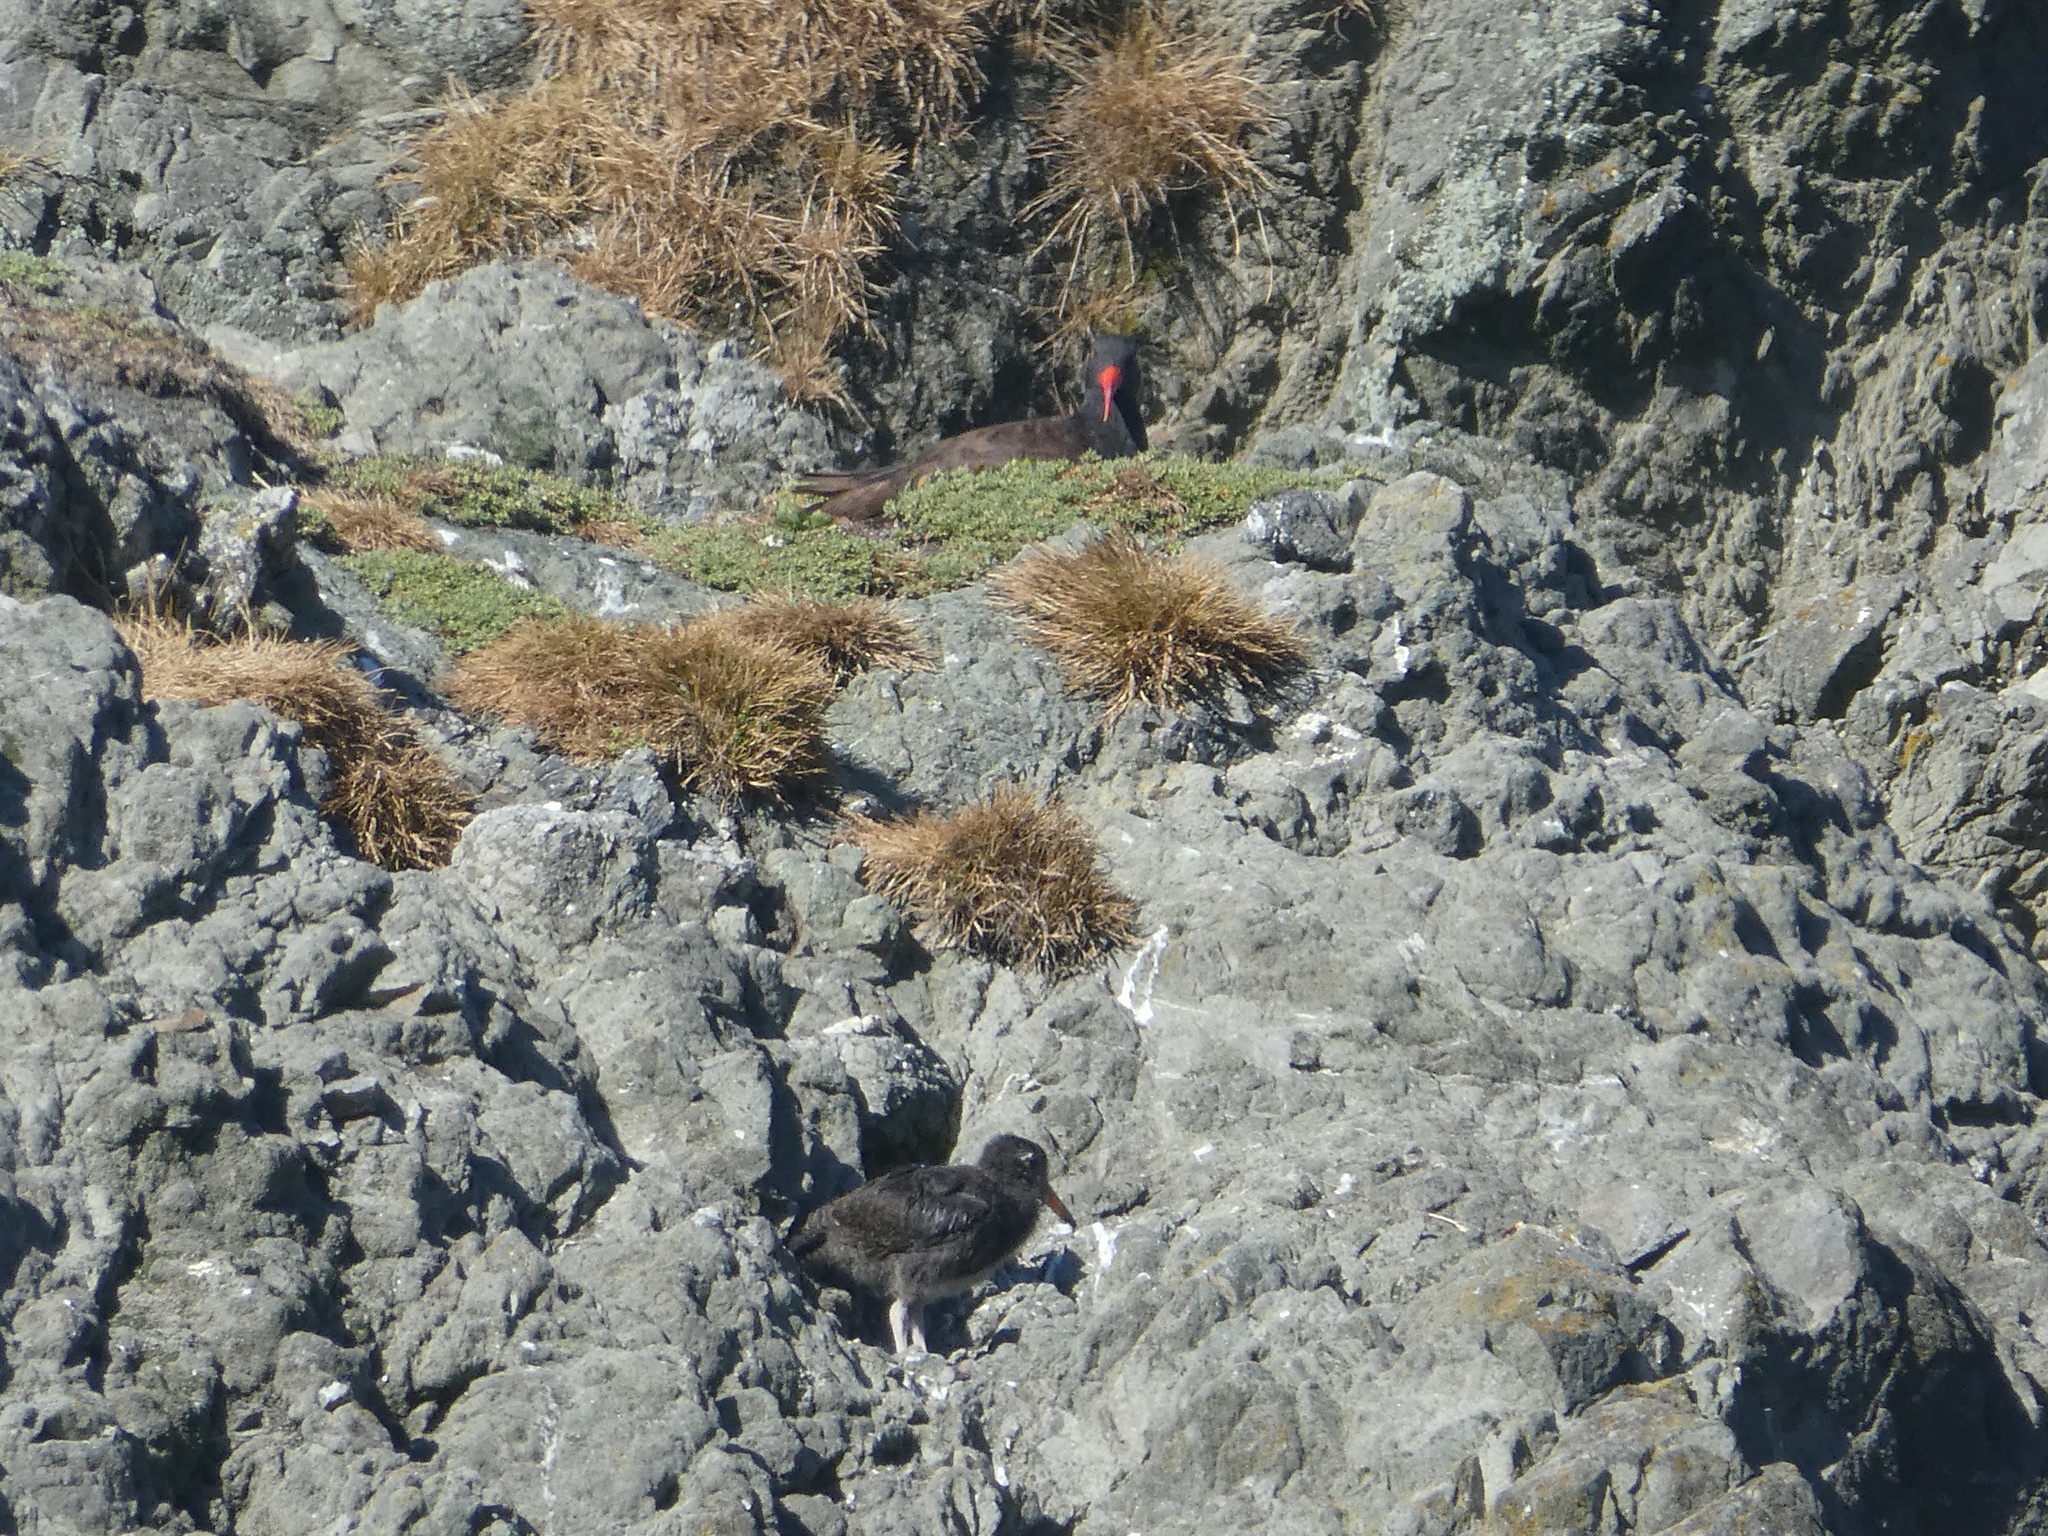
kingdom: Animalia
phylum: Chordata
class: Aves
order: Charadriiformes
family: Haematopodidae
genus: Haematopus
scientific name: Haematopus bachmani
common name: Black oystercatcher
